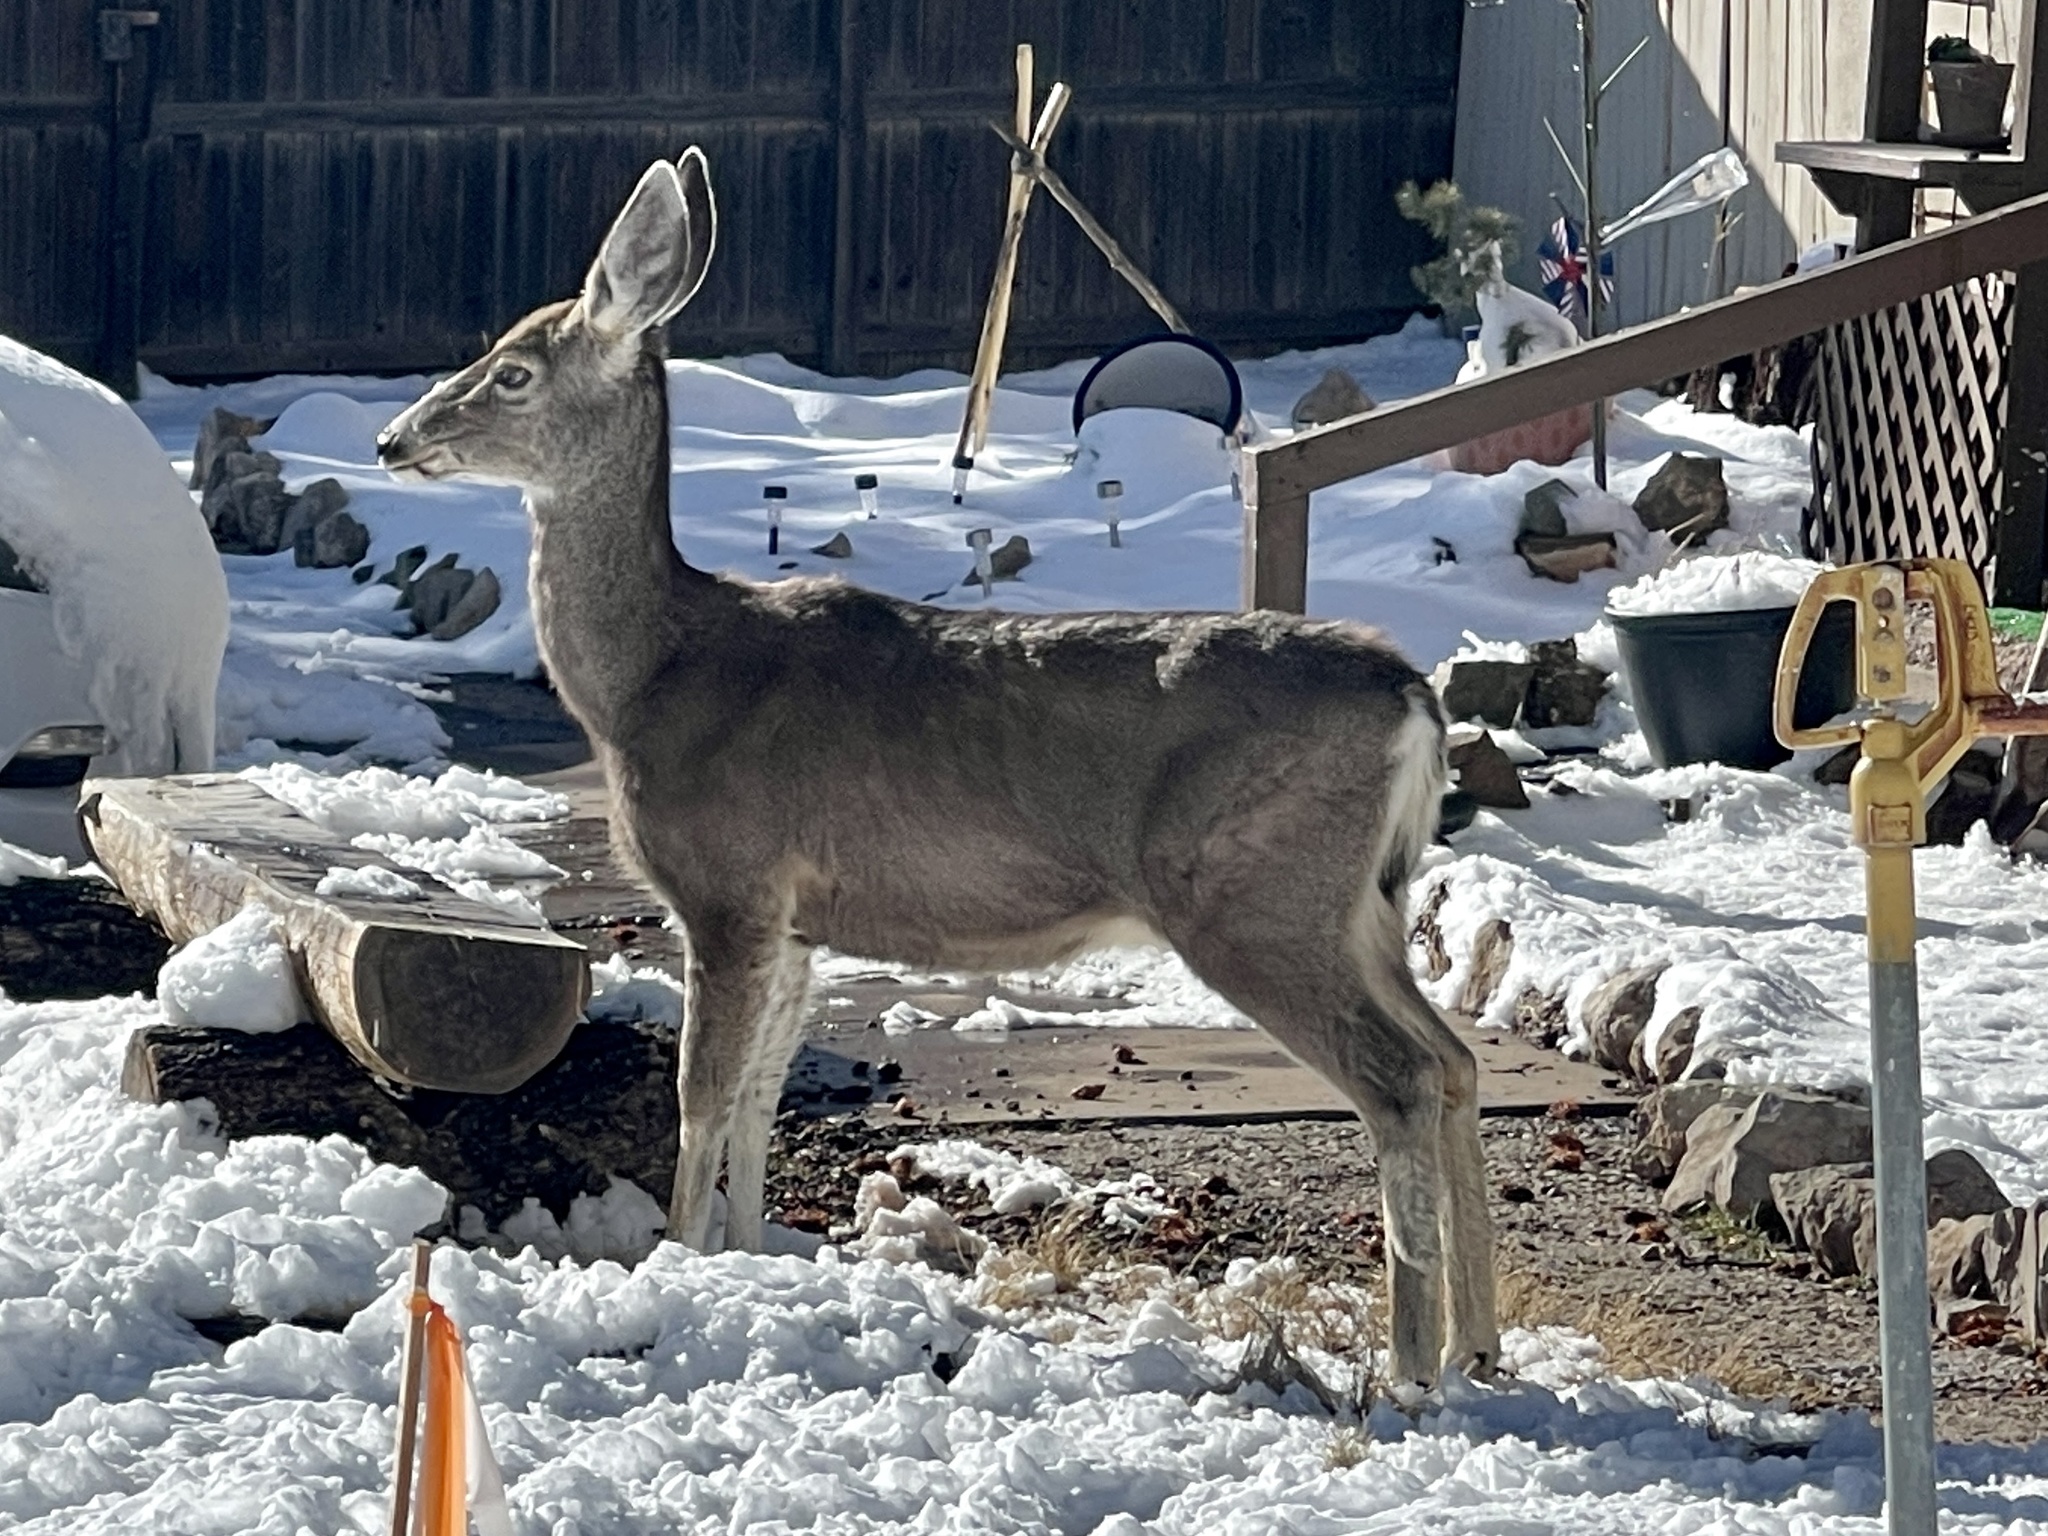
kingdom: Animalia
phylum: Chordata
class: Mammalia
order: Artiodactyla
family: Cervidae
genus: Odocoileus
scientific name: Odocoileus hemionus
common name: Mule deer
